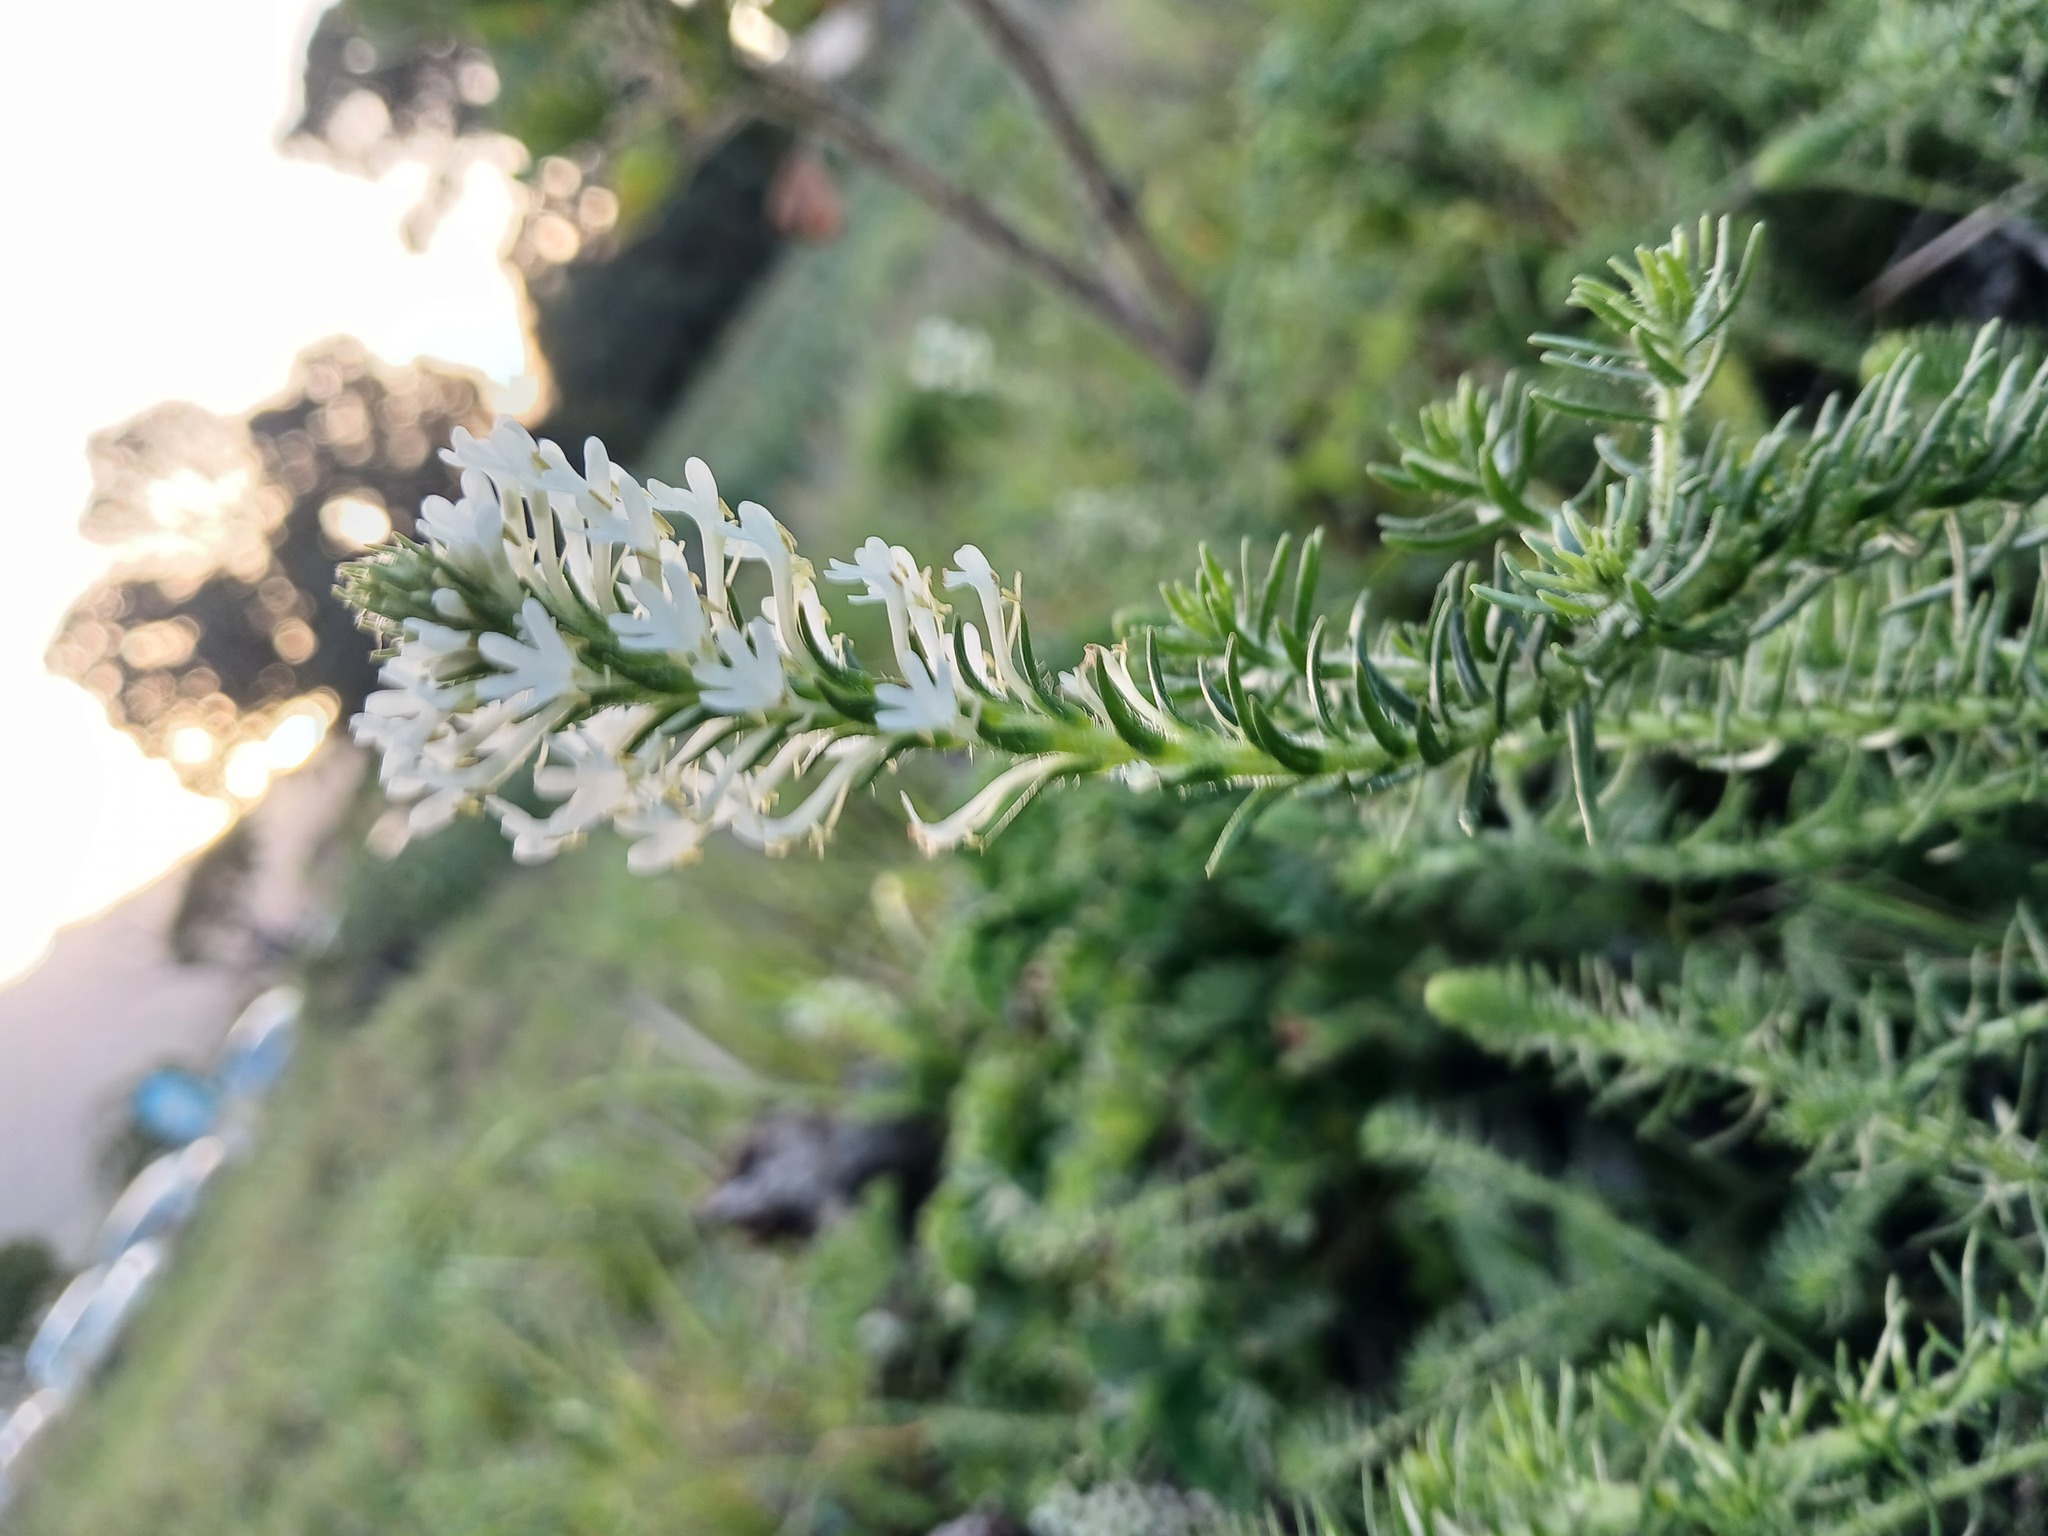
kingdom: Plantae
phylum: Tracheophyta
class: Magnoliopsida
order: Lamiales
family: Scrophulariaceae
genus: Dischisma
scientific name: Dischisma ciliatum
